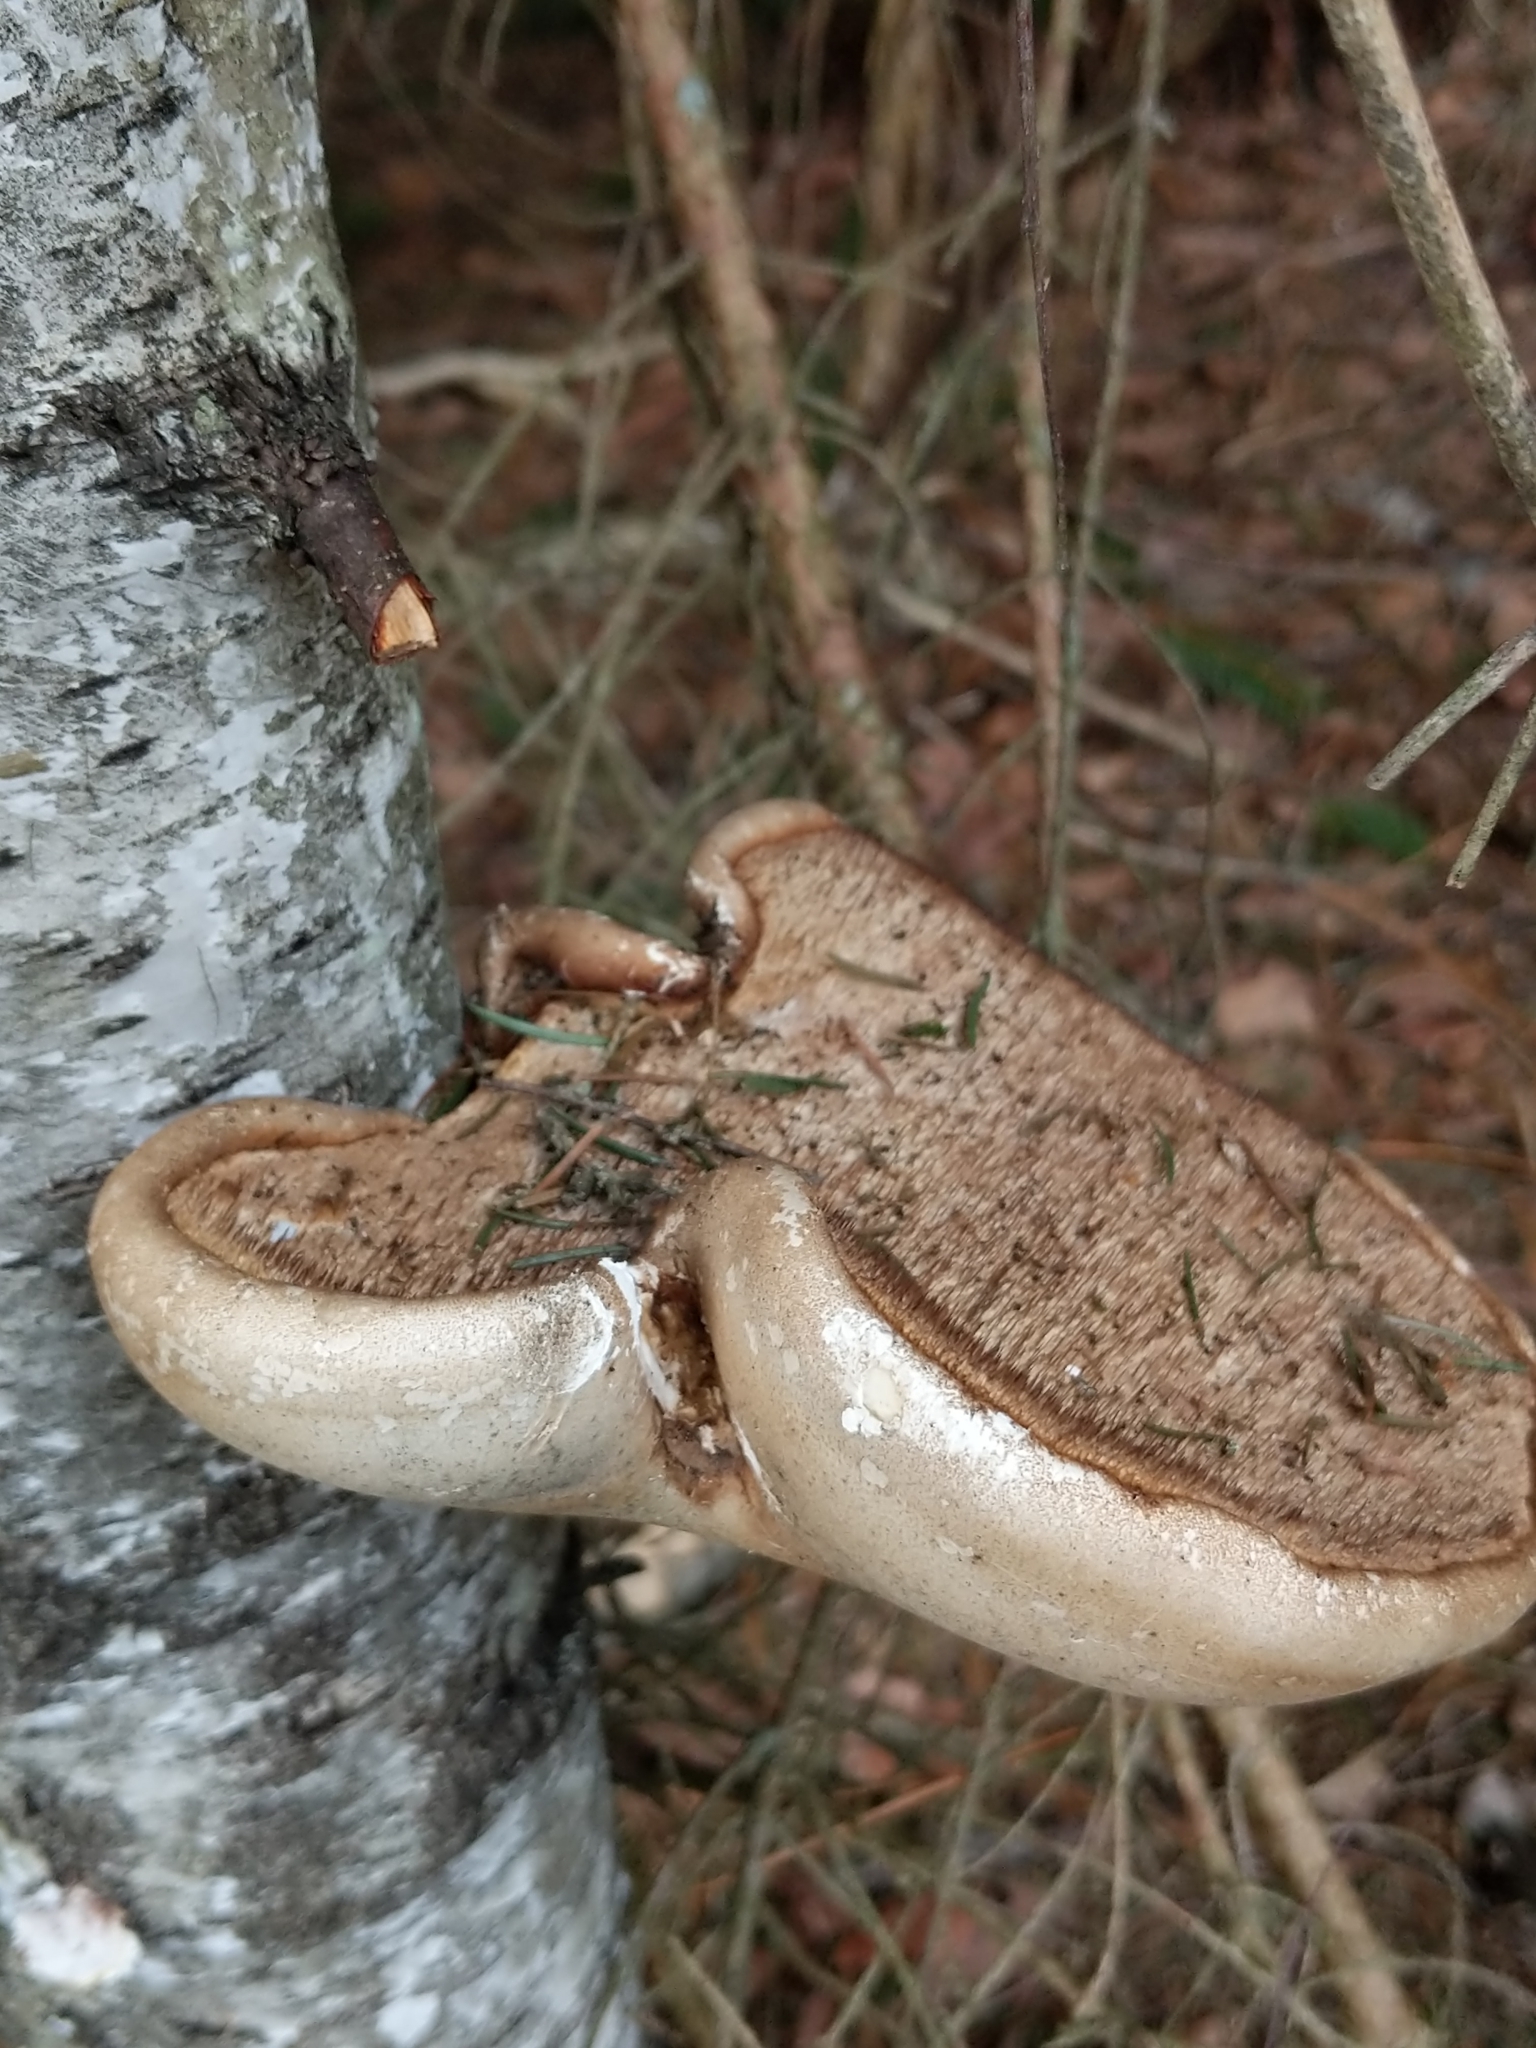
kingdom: Fungi
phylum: Basidiomycota
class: Agaricomycetes
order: Polyporales
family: Fomitopsidaceae
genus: Fomitopsis
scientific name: Fomitopsis betulina
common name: Birch polypore
